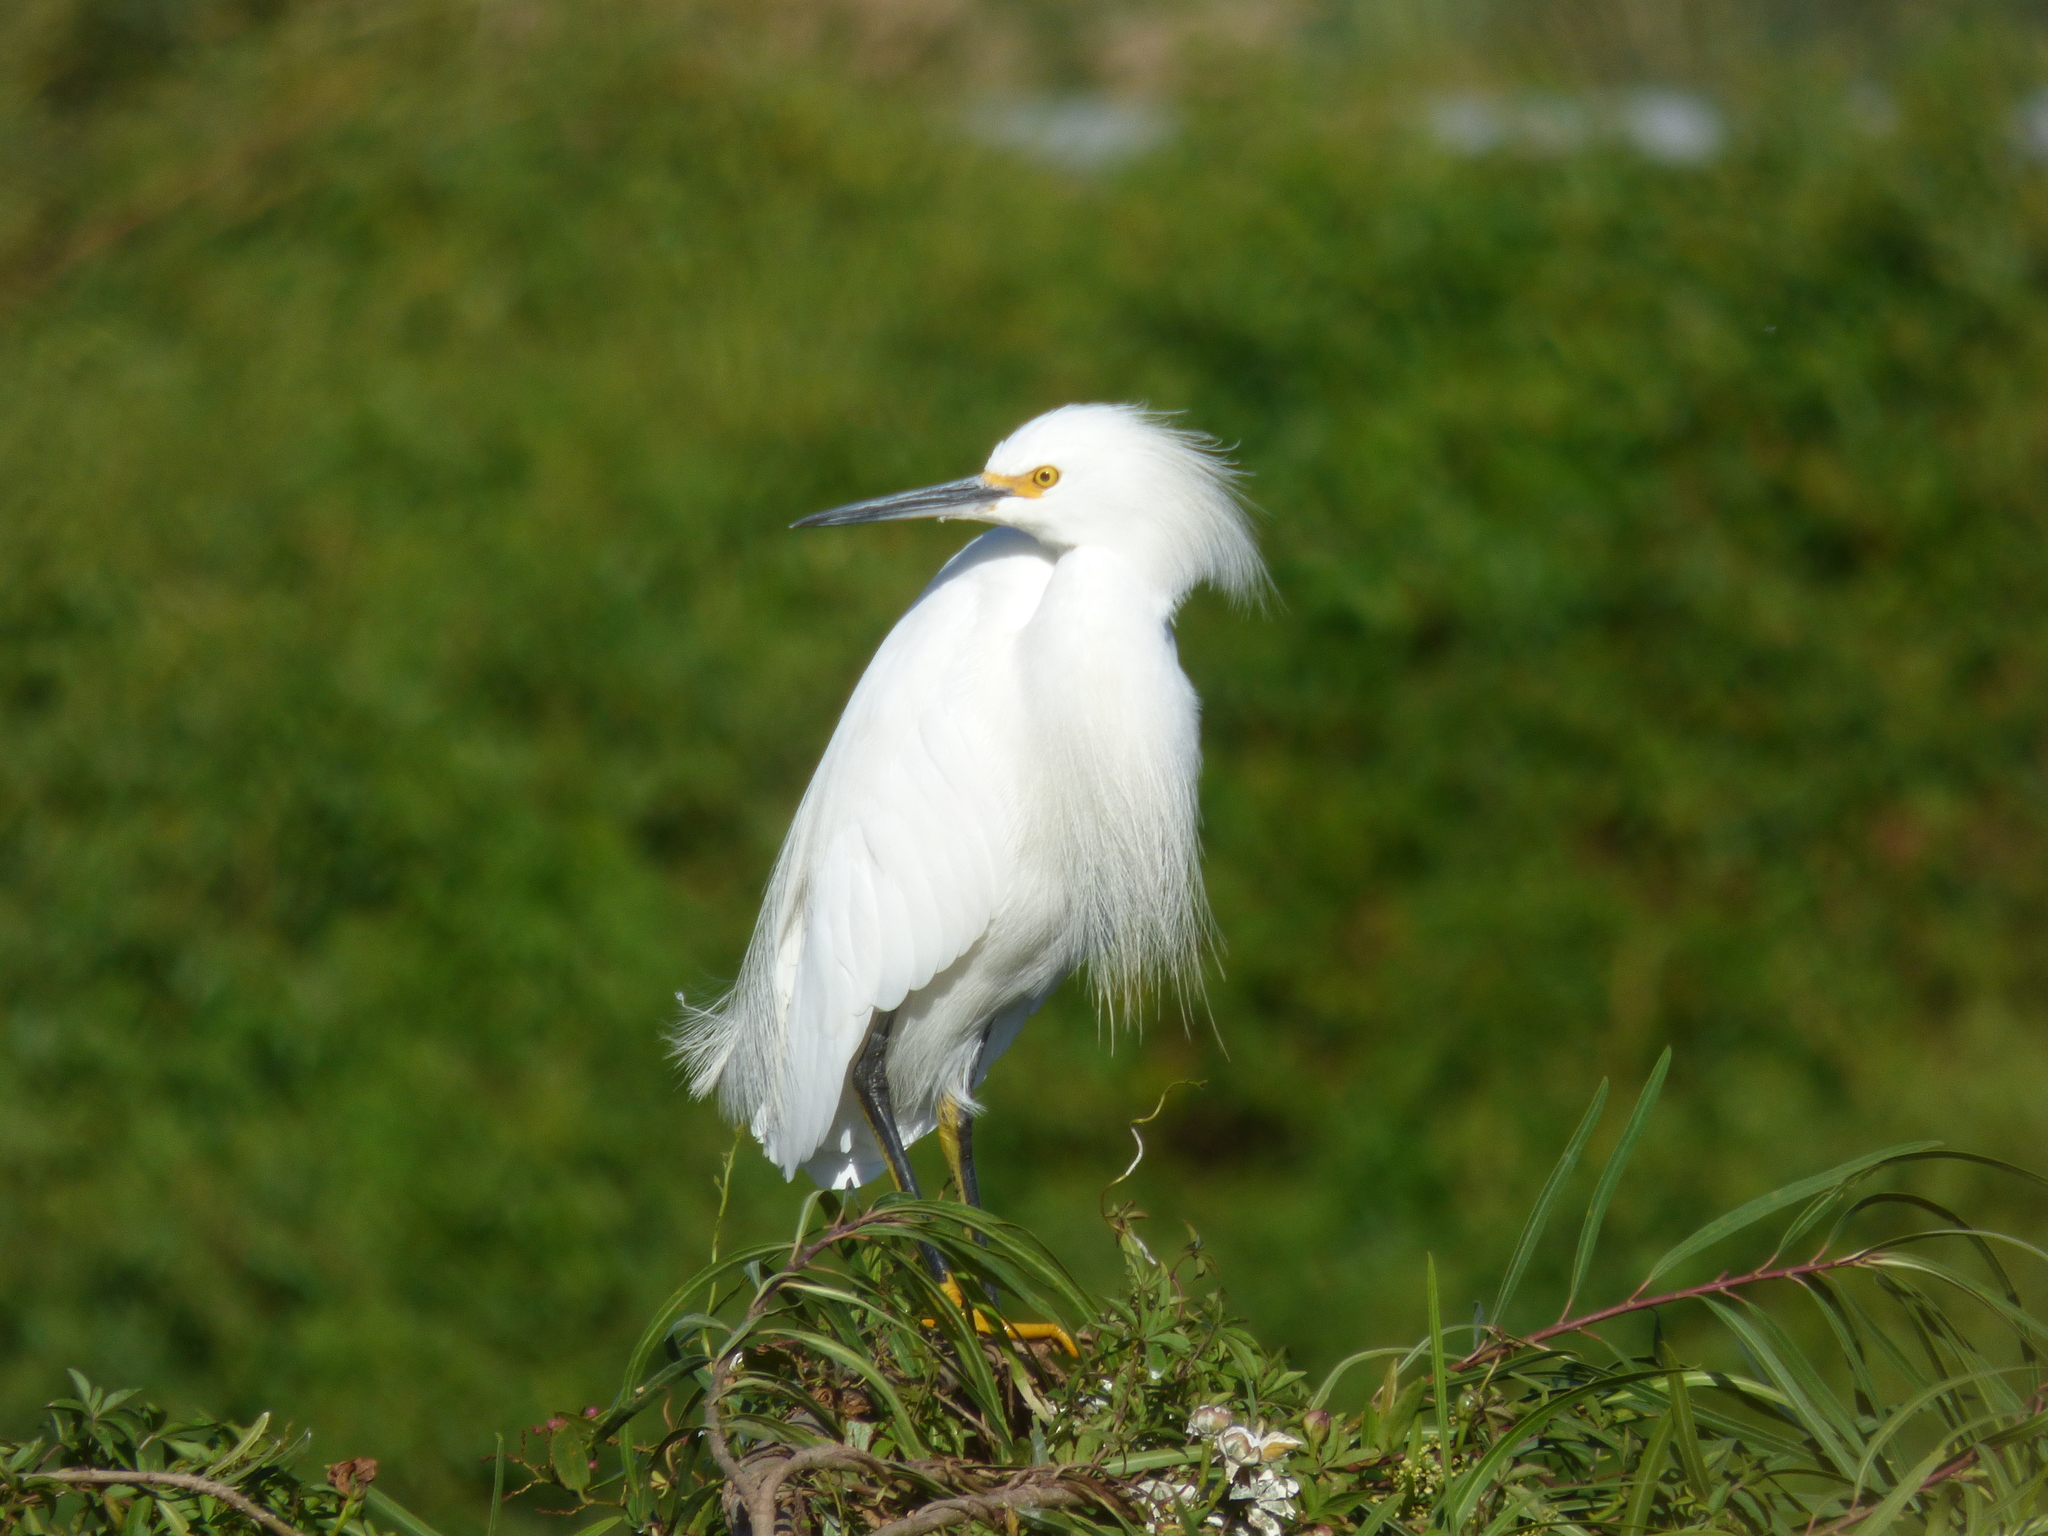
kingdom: Animalia
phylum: Chordata
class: Aves
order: Pelecaniformes
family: Ardeidae
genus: Egretta
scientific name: Egretta thula
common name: Snowy egret
